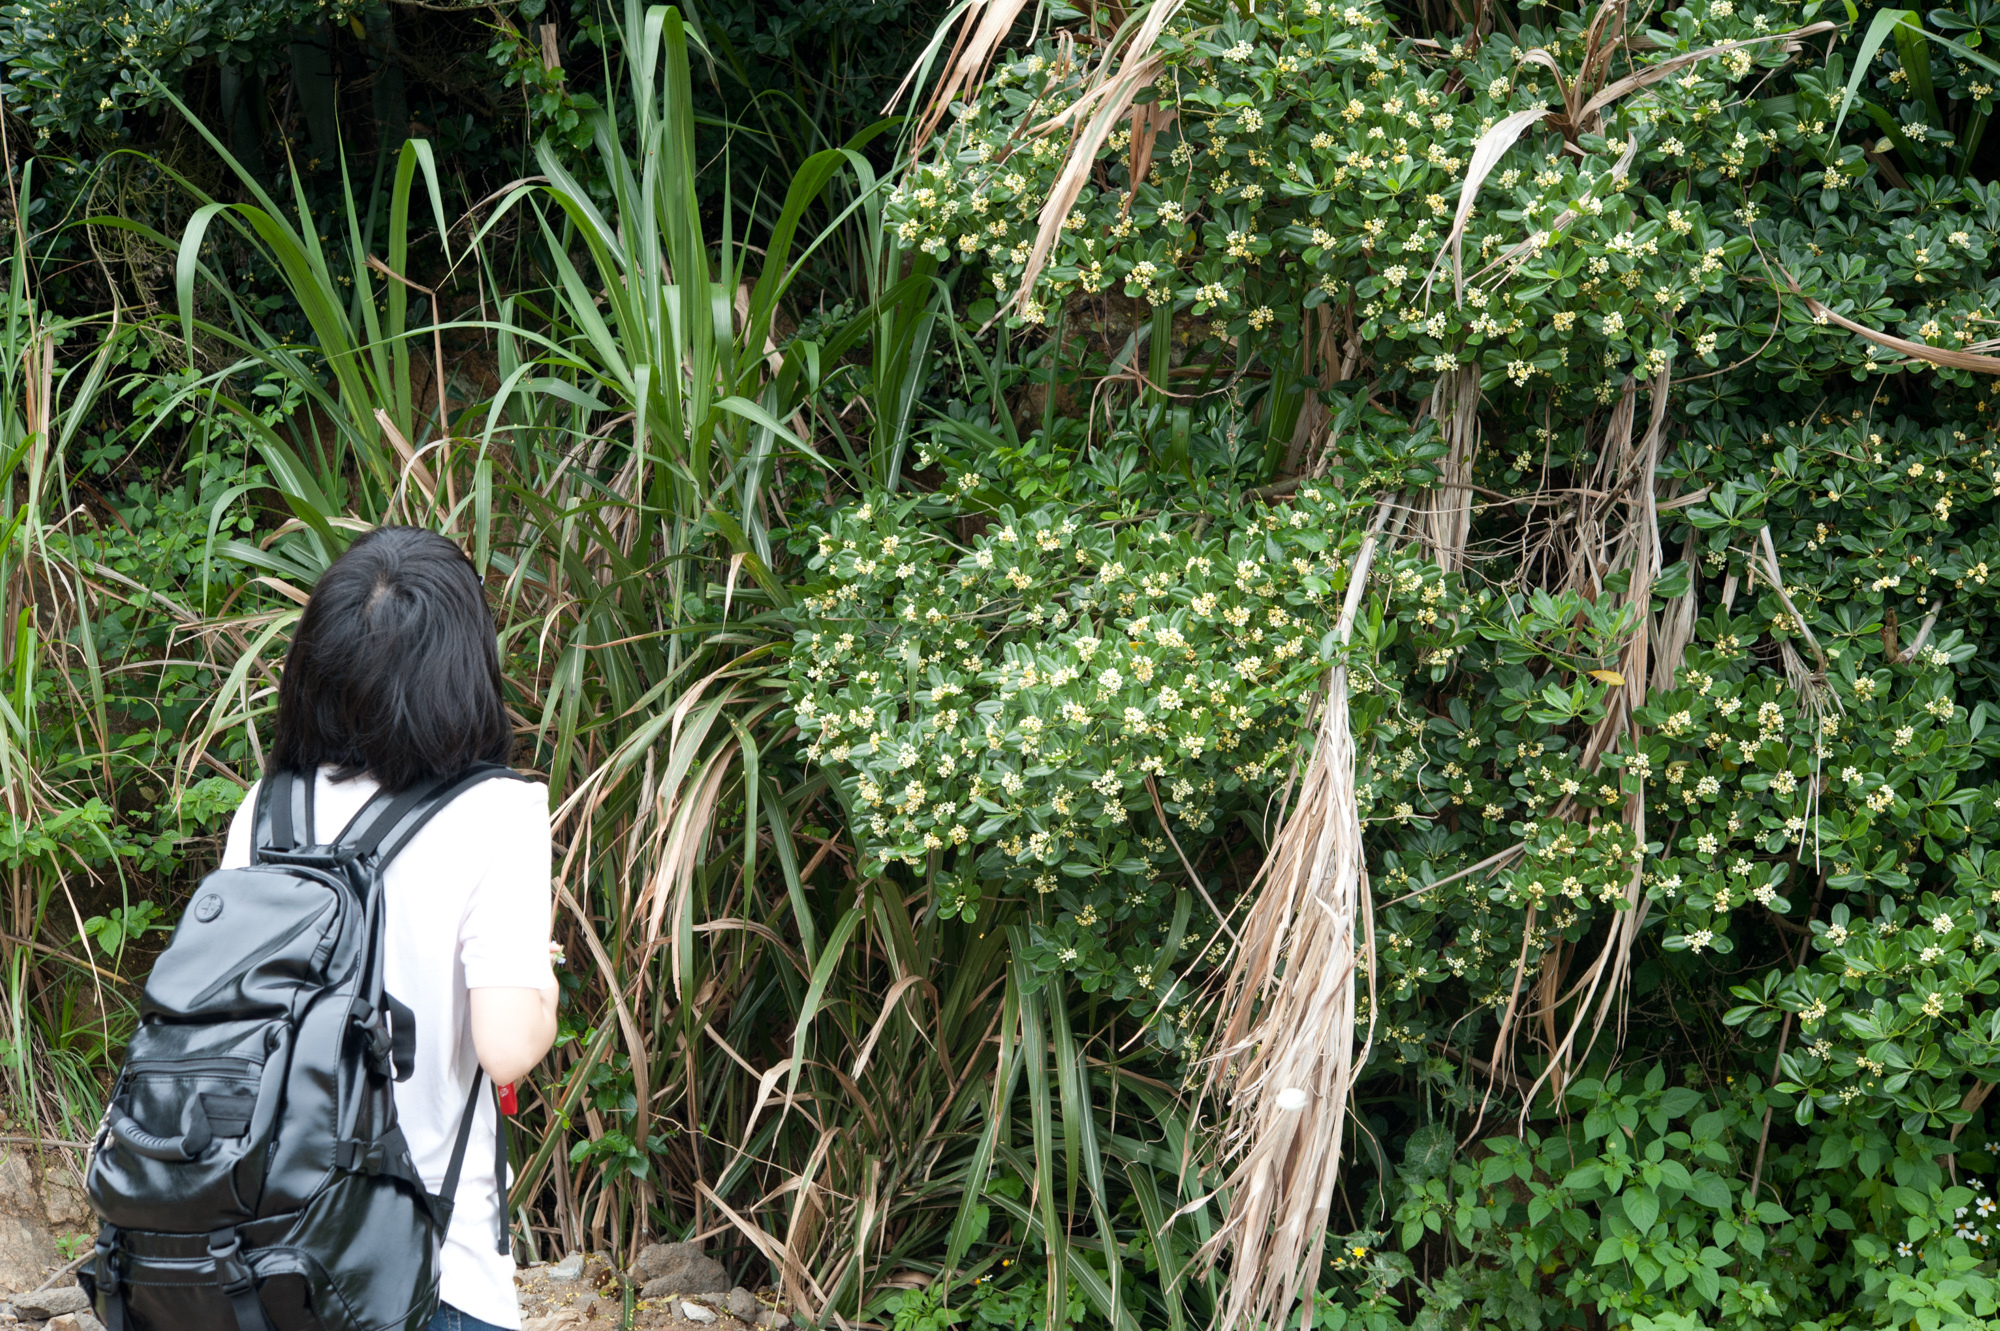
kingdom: Plantae
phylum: Tracheophyta
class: Magnoliopsida
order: Apiales
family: Pittosporaceae
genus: Pittosporum
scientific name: Pittosporum tobira
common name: Japanese cheesewood
